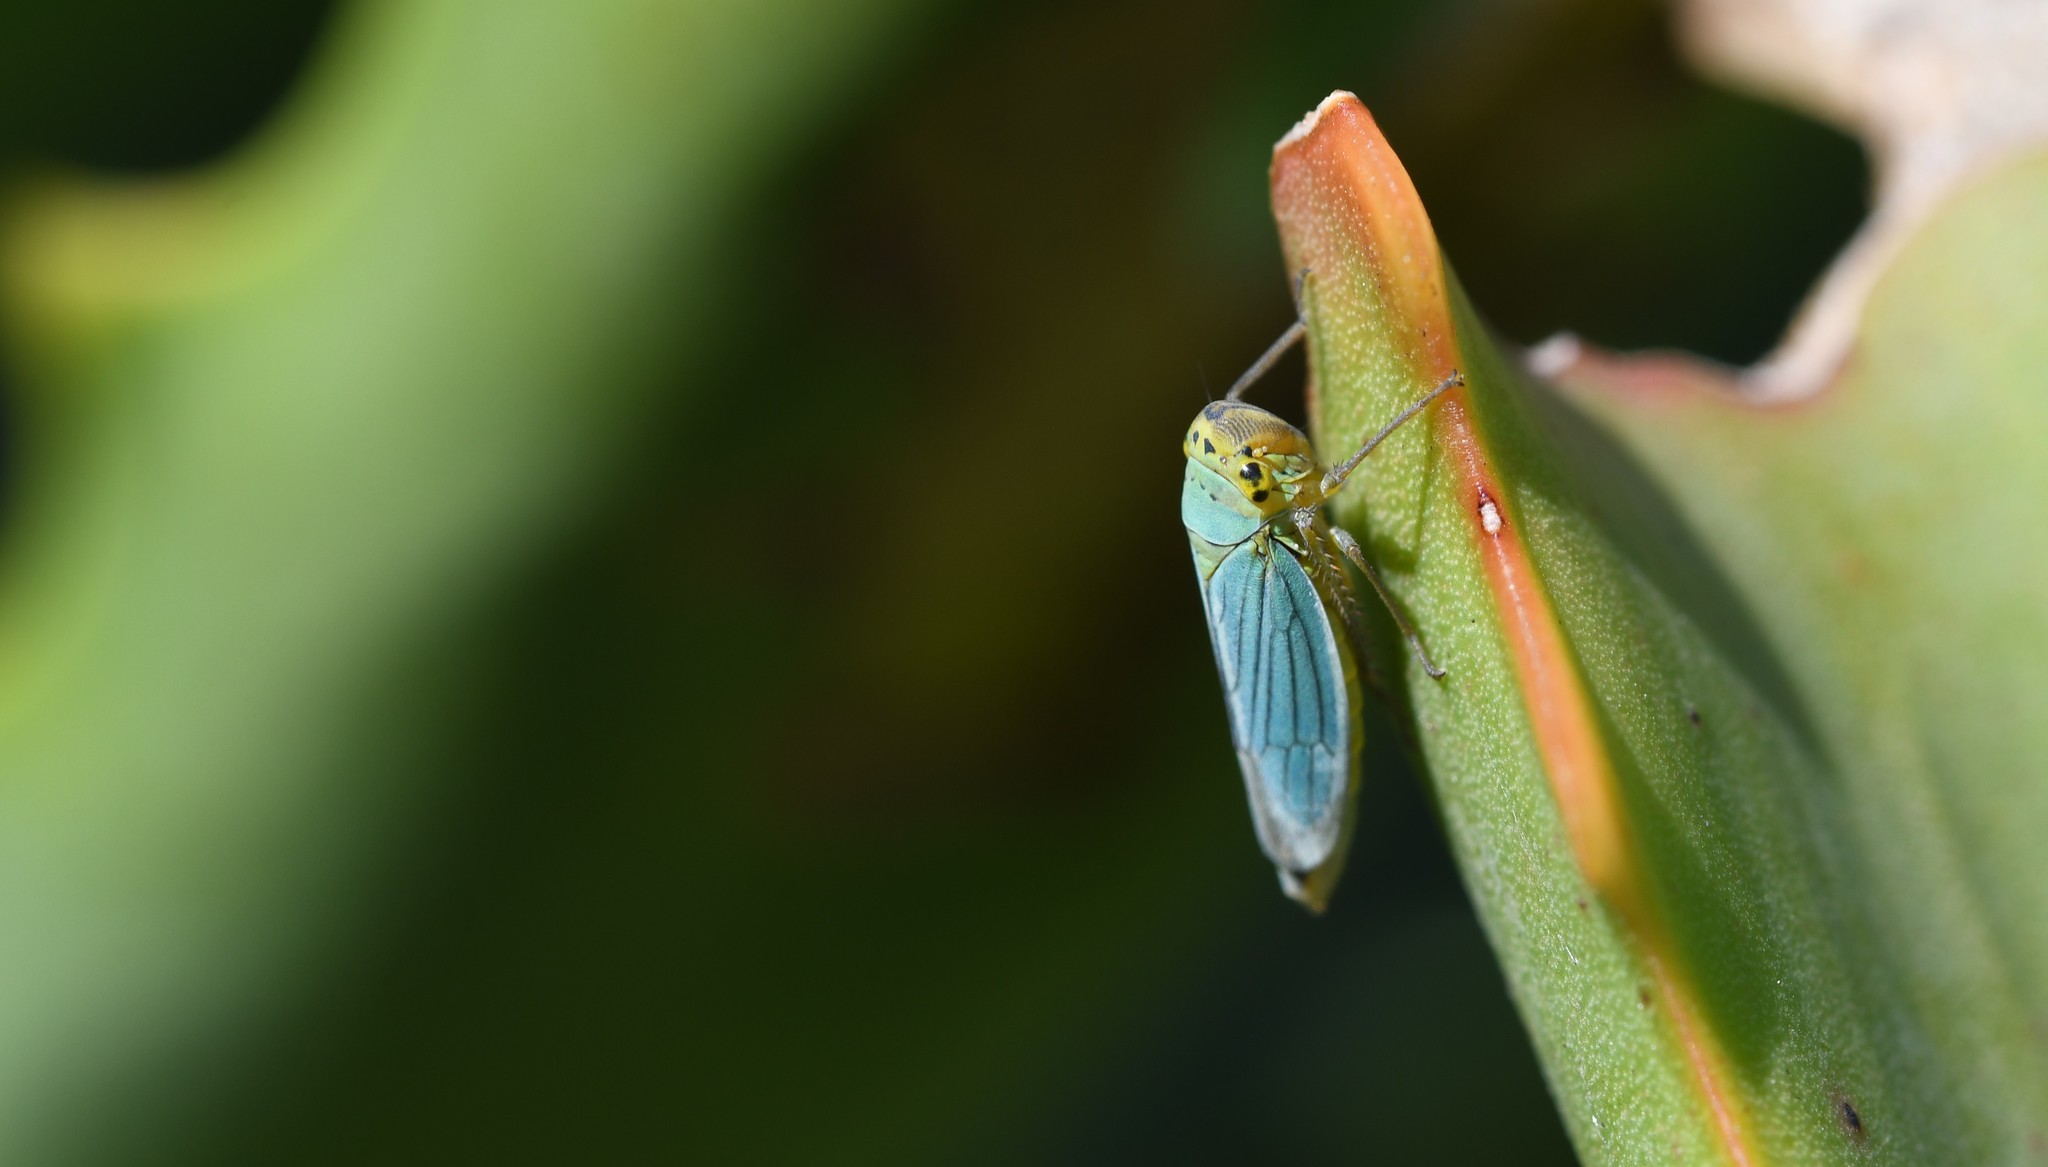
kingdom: Animalia
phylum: Arthropoda
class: Insecta
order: Hemiptera
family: Cicadellidae
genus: Cicadella
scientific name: Cicadella viridis
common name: Leafhopper
